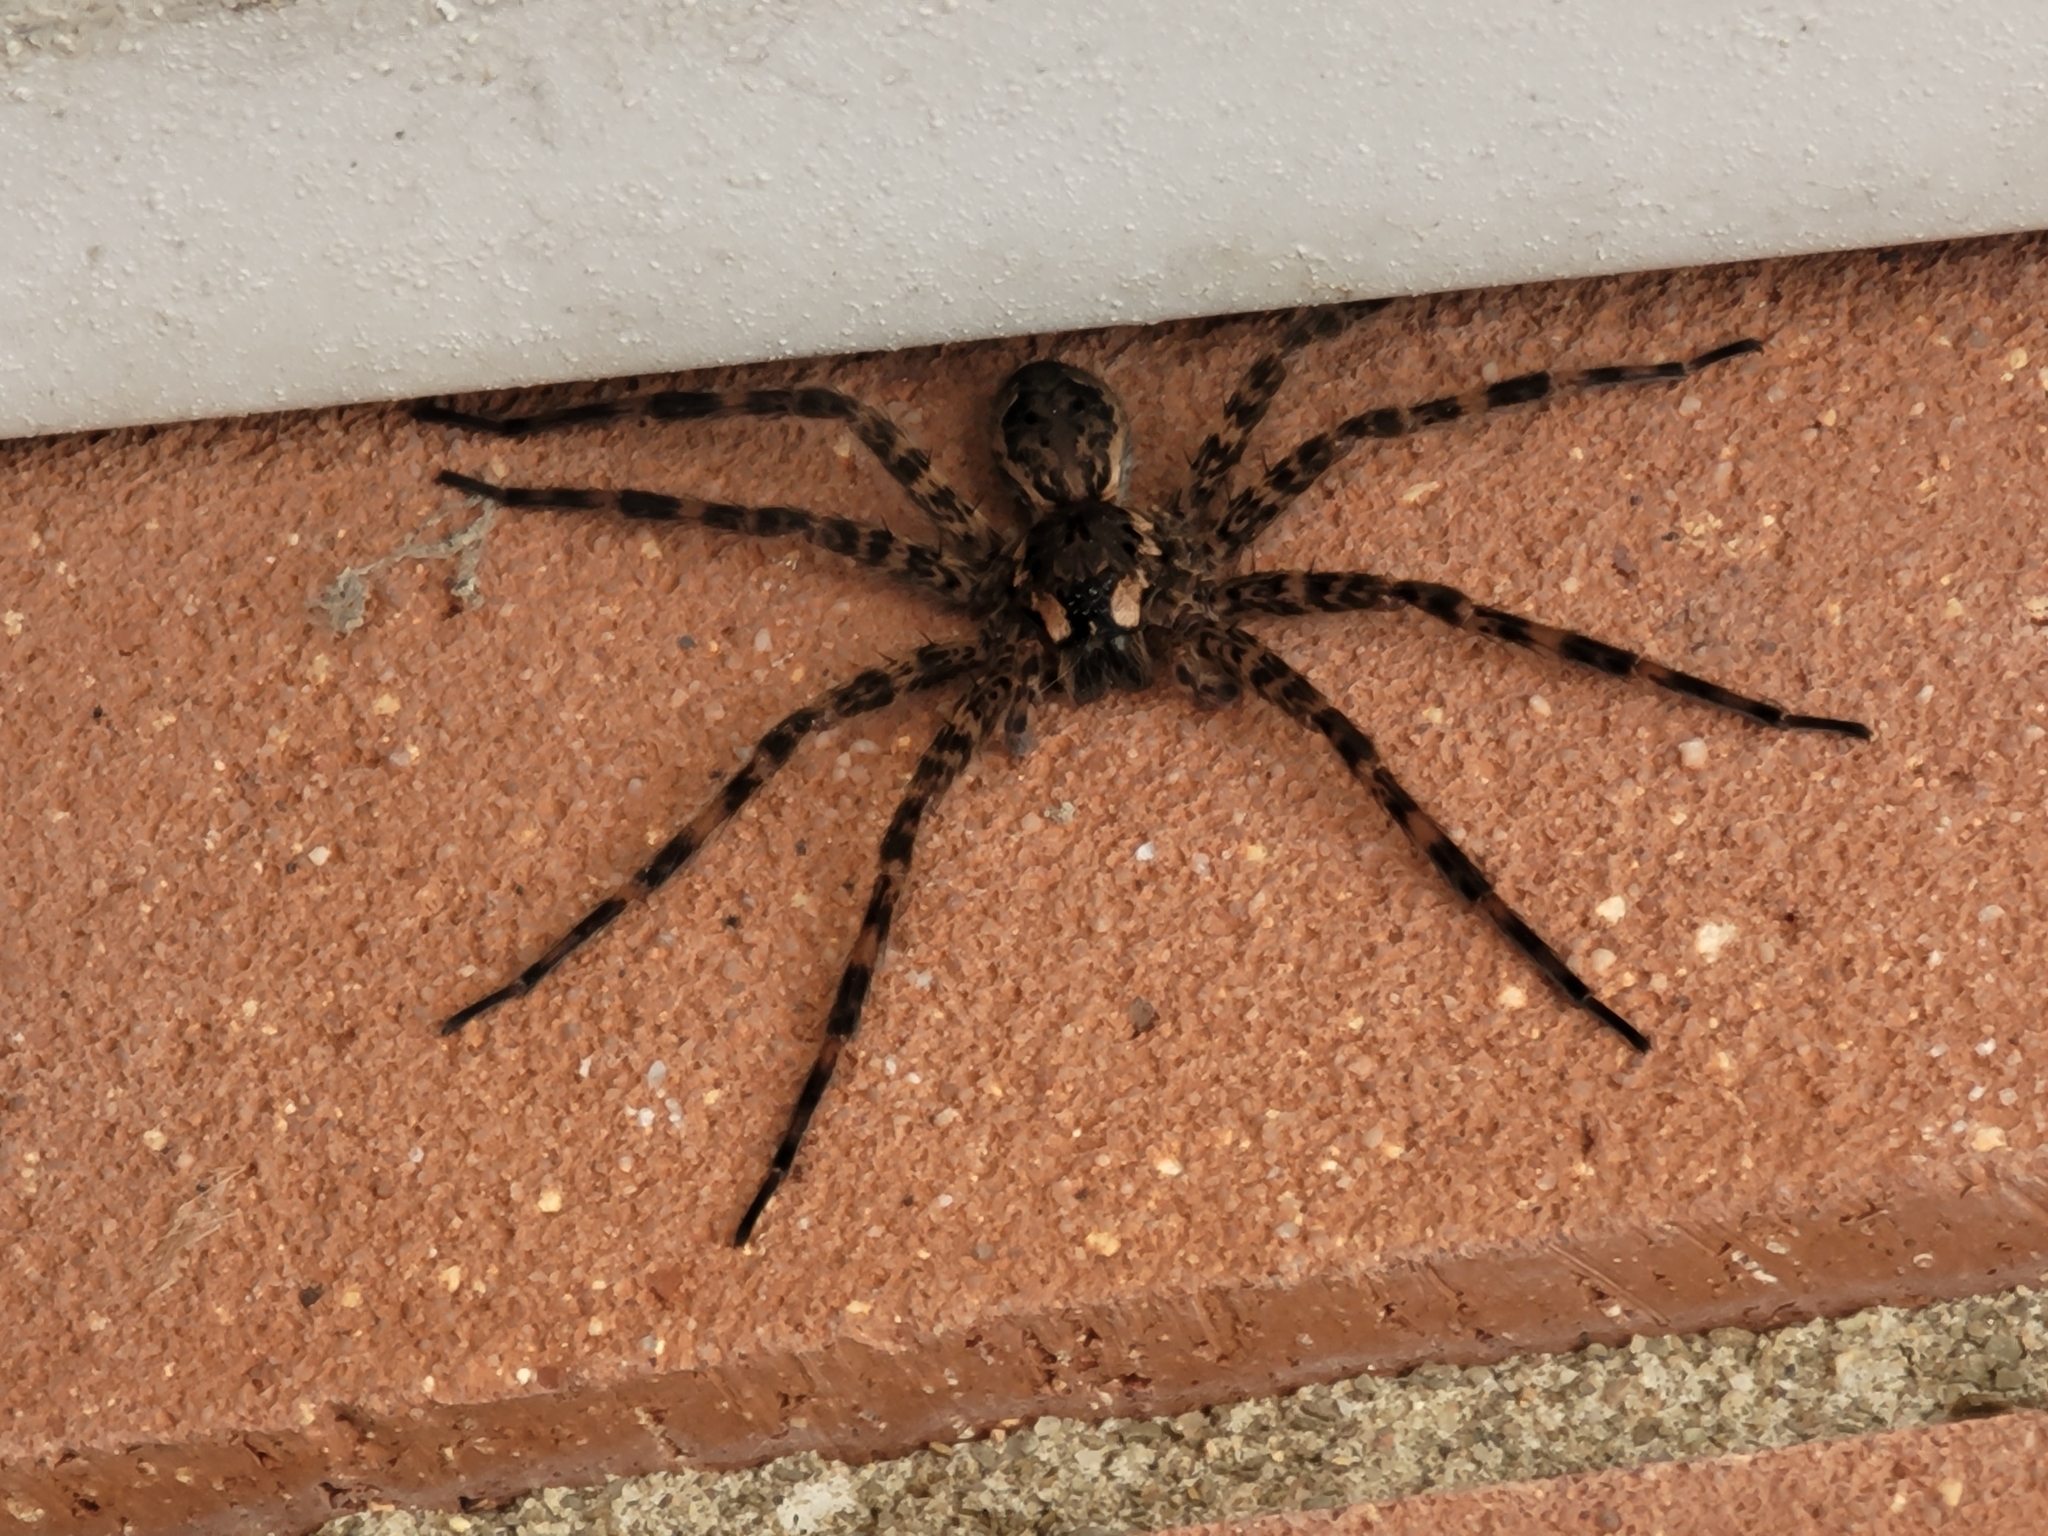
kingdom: Animalia
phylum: Arthropoda
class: Arachnida
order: Araneae
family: Pisauridae
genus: Dolomedes
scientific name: Dolomedes tenebrosus
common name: Dark fishing spider
